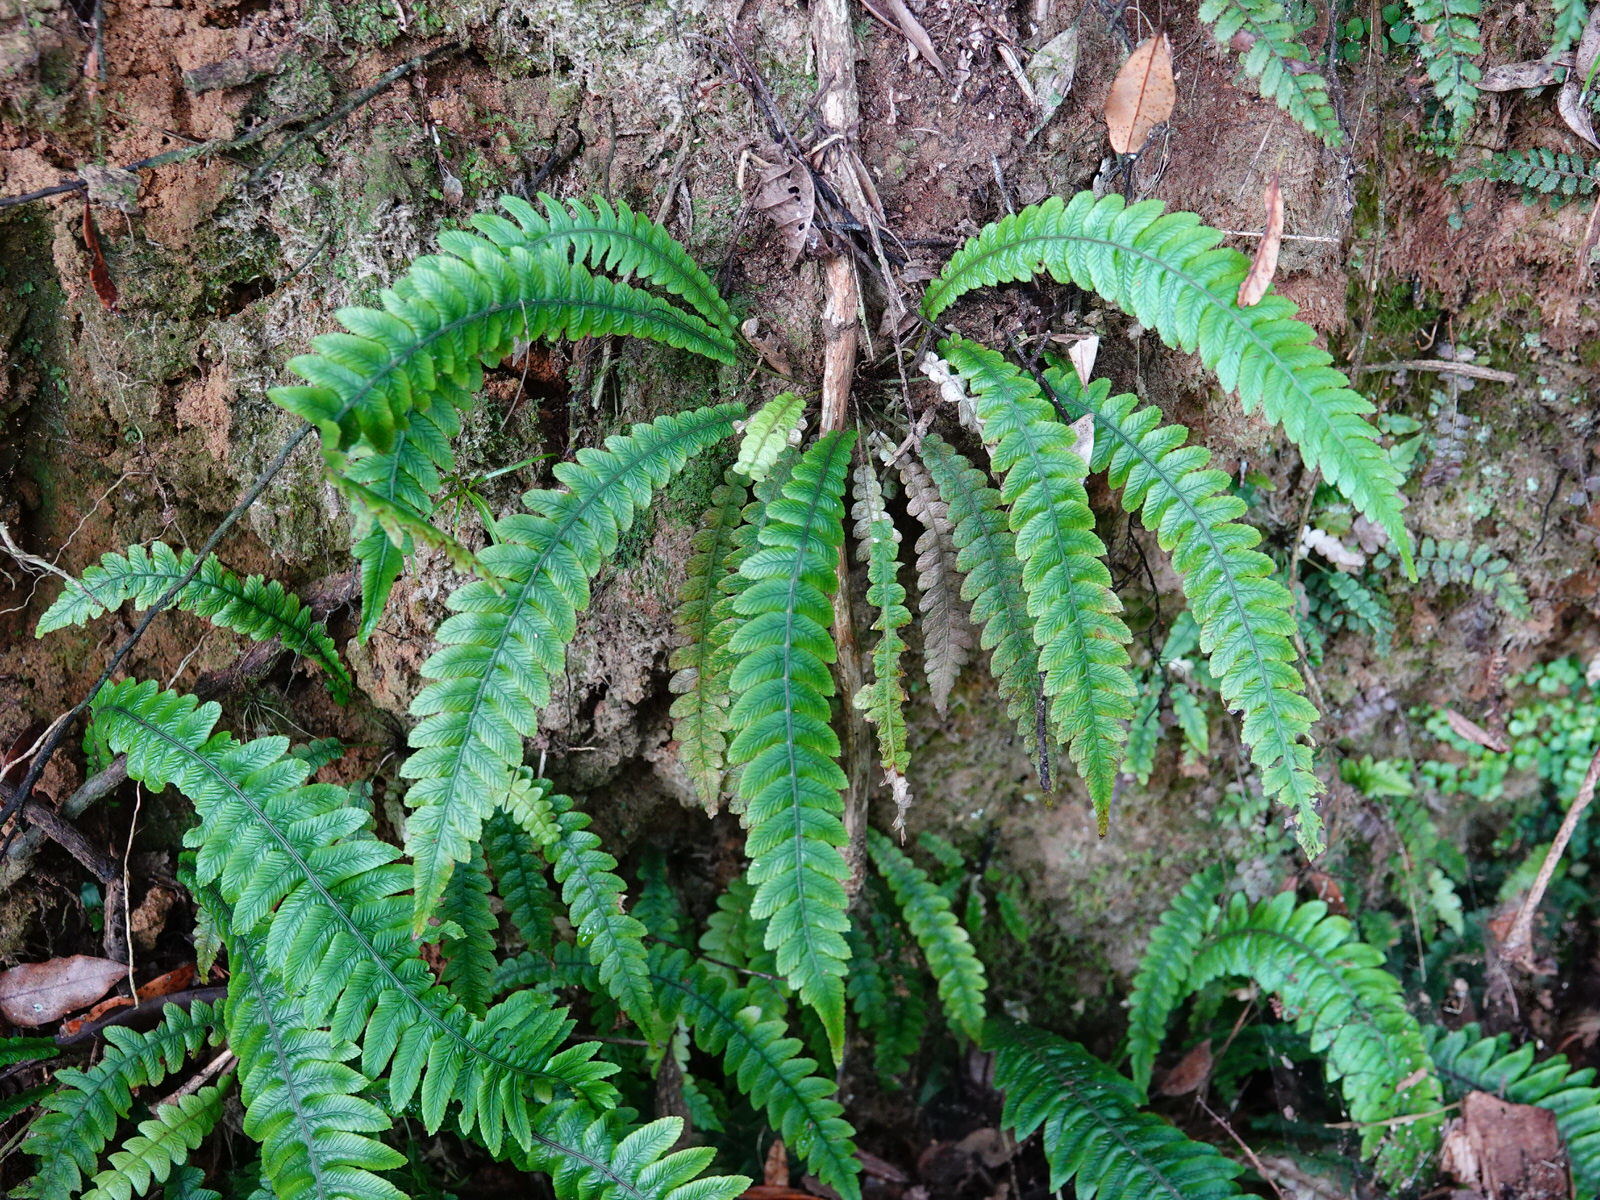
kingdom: Plantae
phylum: Tracheophyta
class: Polypodiopsida
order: Polypodiales
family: Blechnaceae
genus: Austroblechnum
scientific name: Austroblechnum lanceolatum
